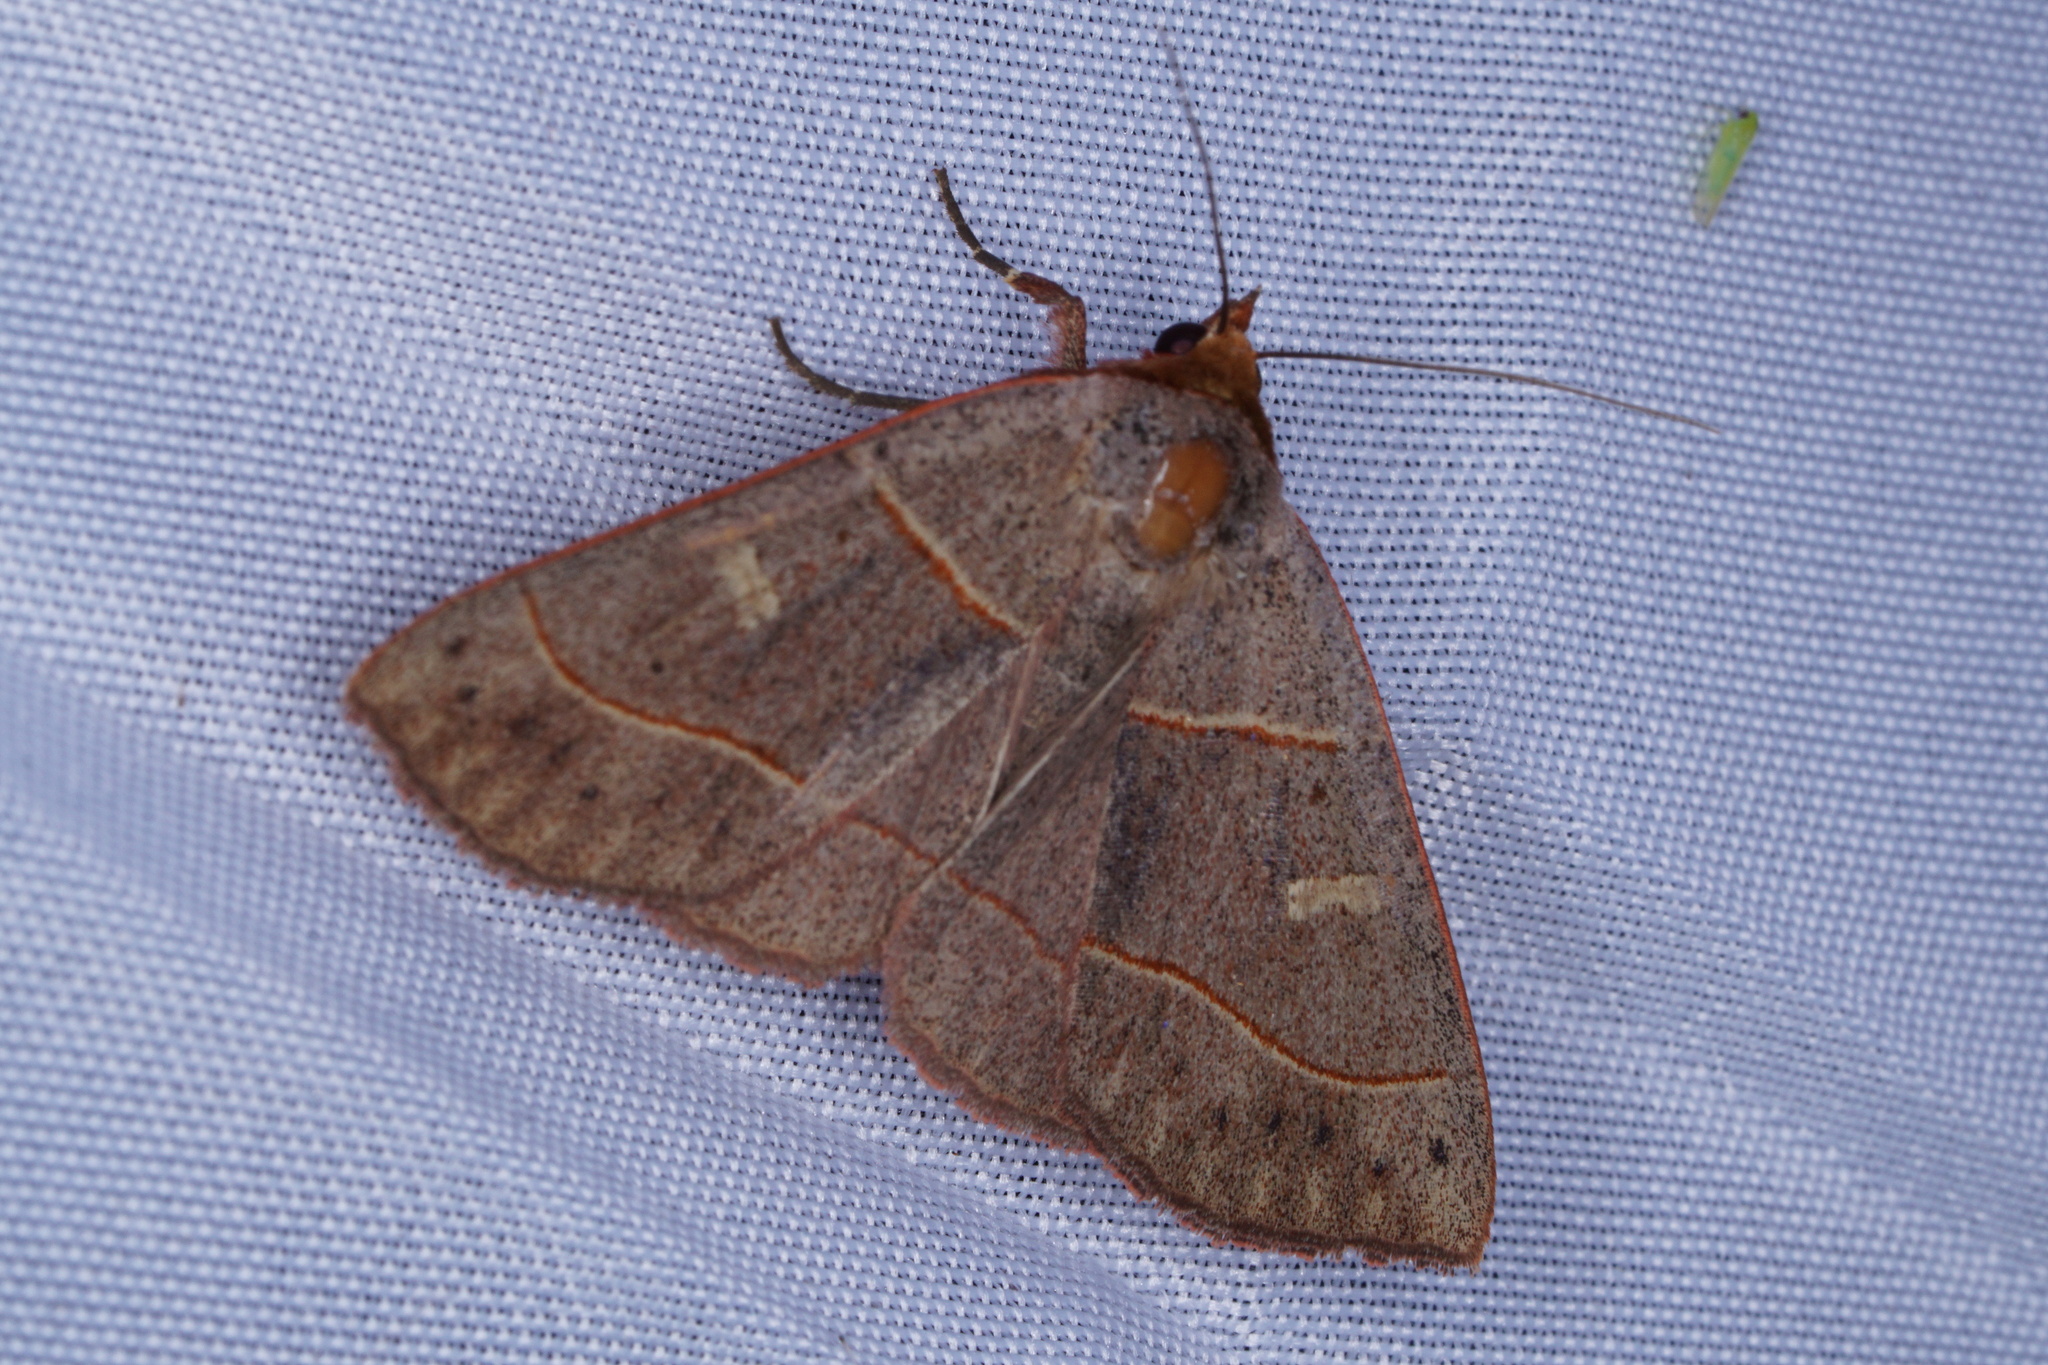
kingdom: Animalia
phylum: Arthropoda
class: Insecta
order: Lepidoptera
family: Erebidae
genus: Panopoda
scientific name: Panopoda rufimargo
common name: Red-lined panopoda moth
